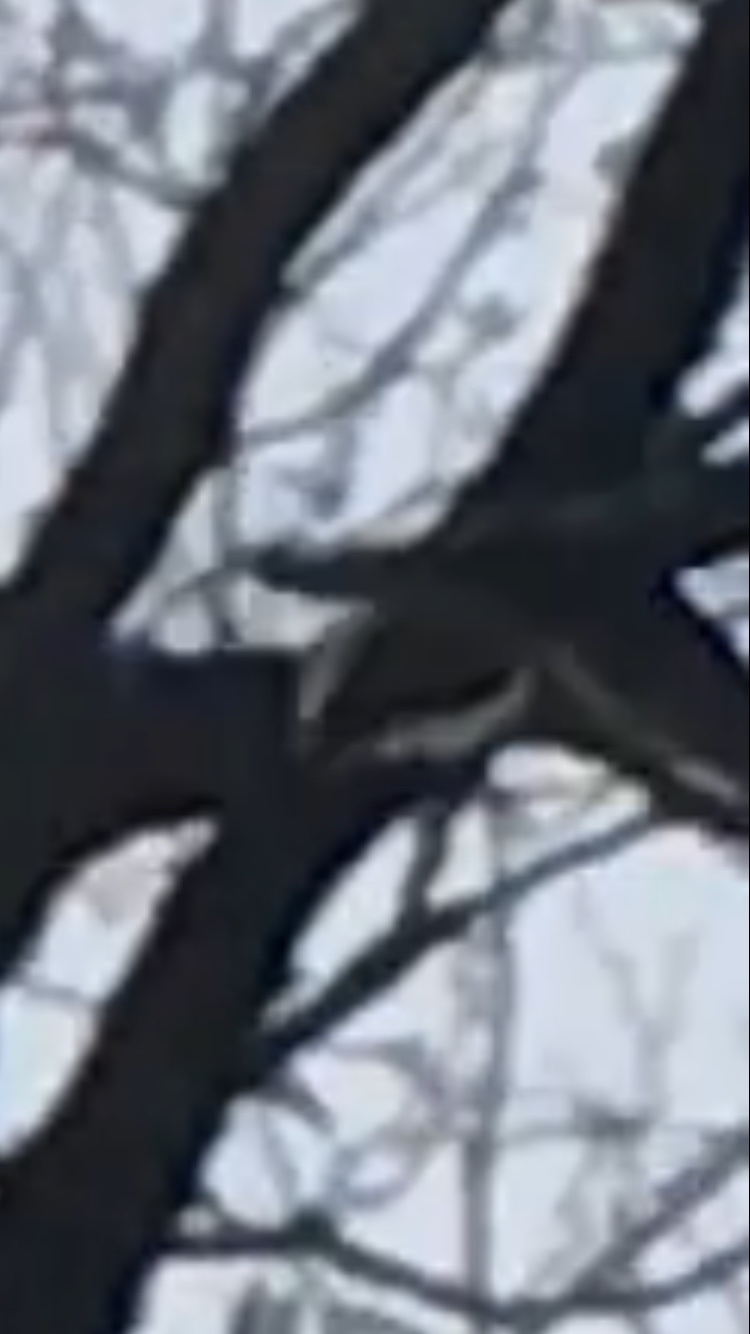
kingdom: Animalia
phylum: Chordata
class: Aves
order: Columbiformes
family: Columbidae
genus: Zenaida
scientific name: Zenaida macroura
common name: Mourning dove
